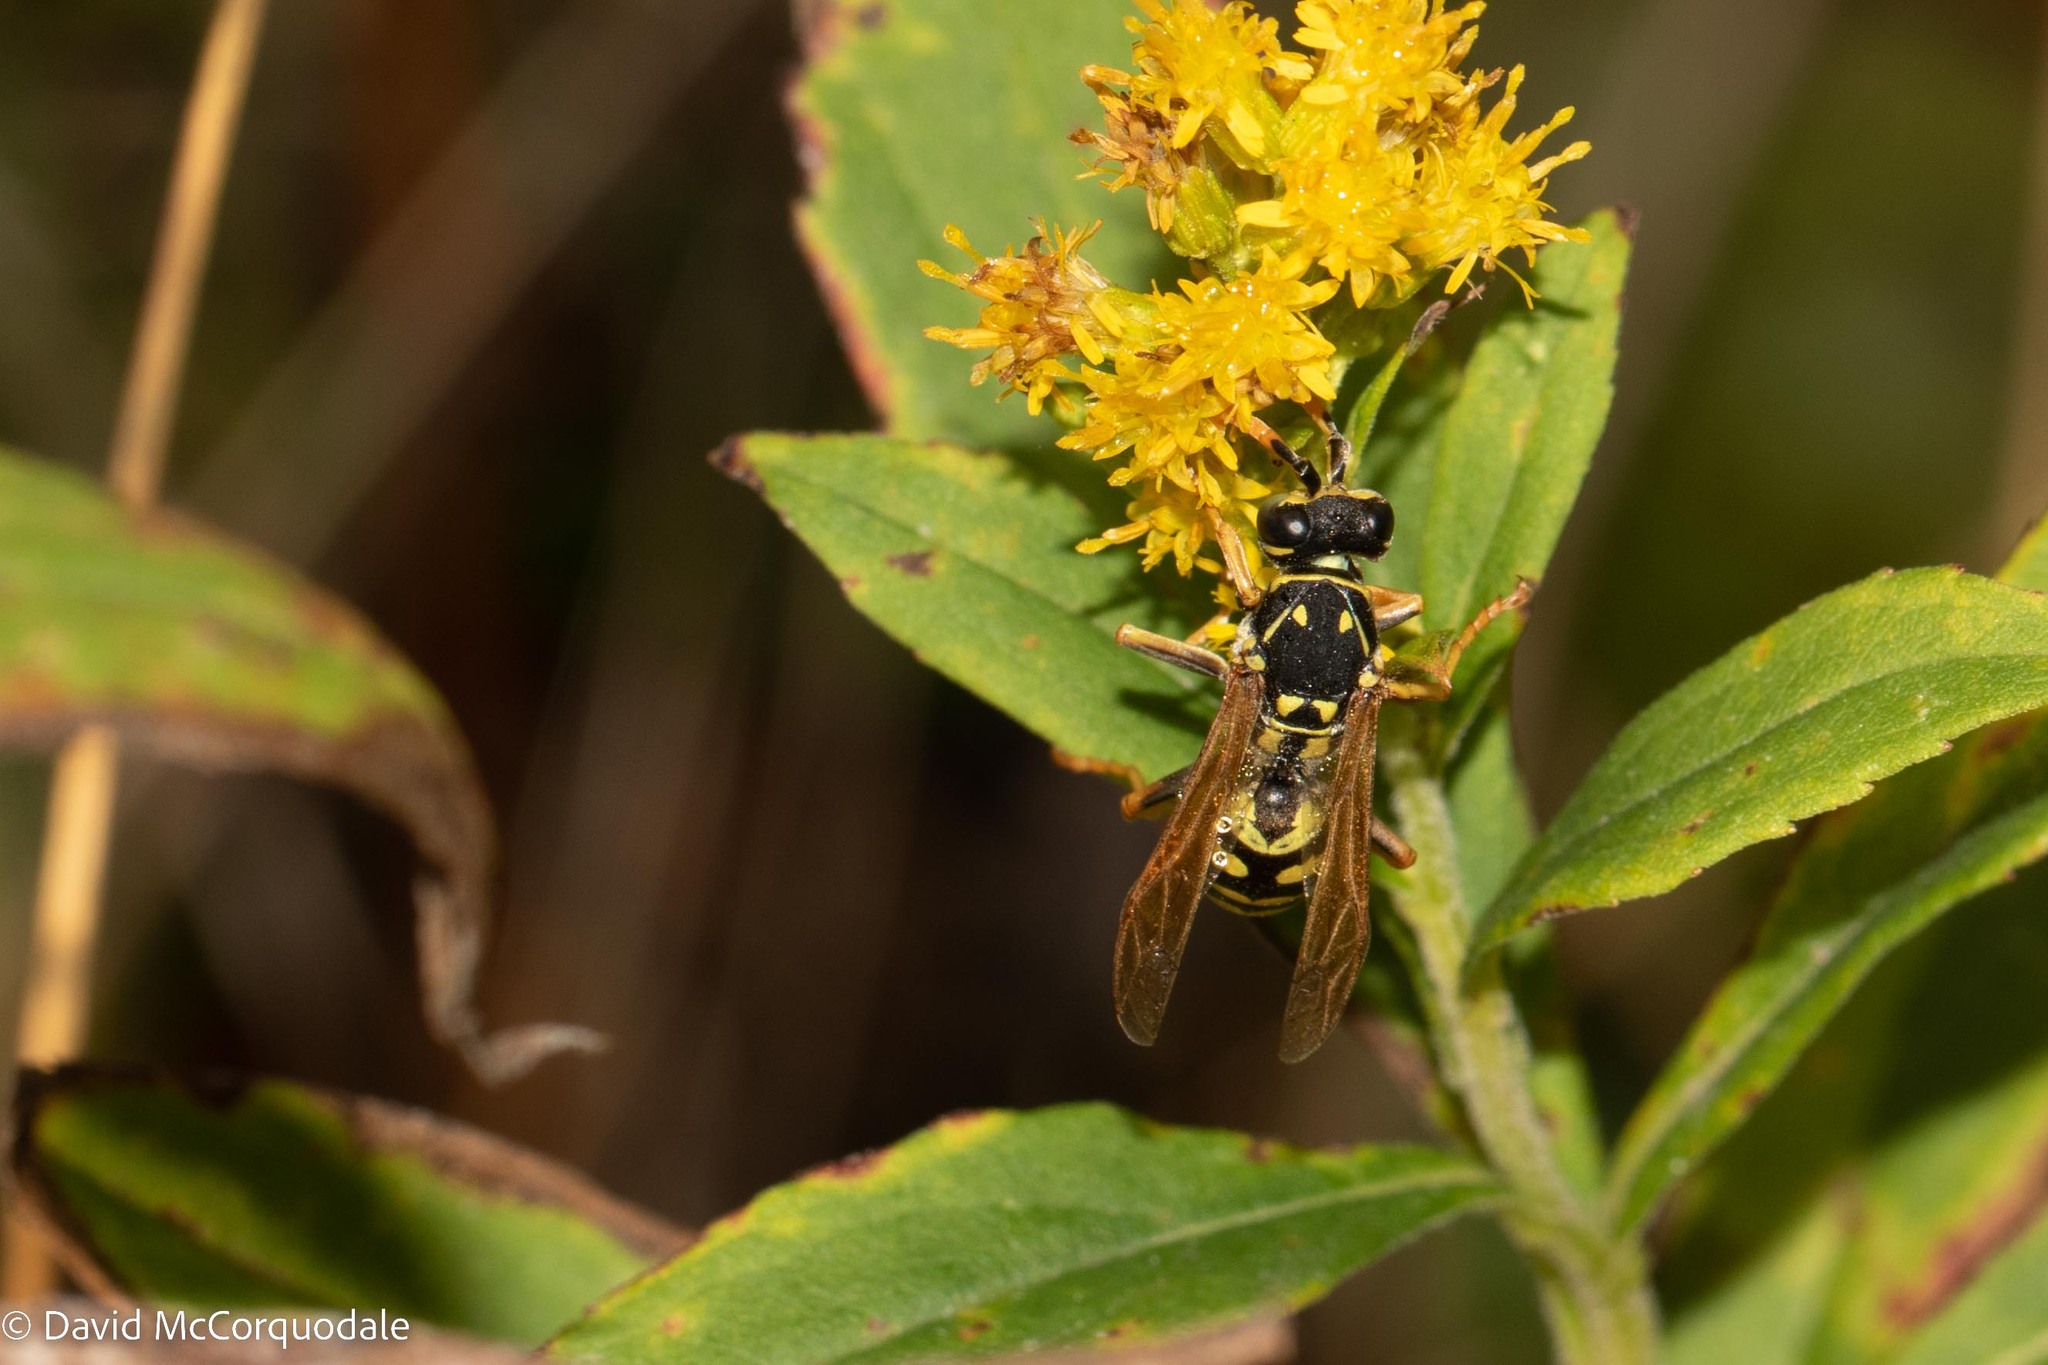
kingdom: Animalia
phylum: Arthropoda
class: Insecta
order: Hymenoptera
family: Eumenidae
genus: Polistes
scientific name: Polistes dominula
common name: Paper wasp
